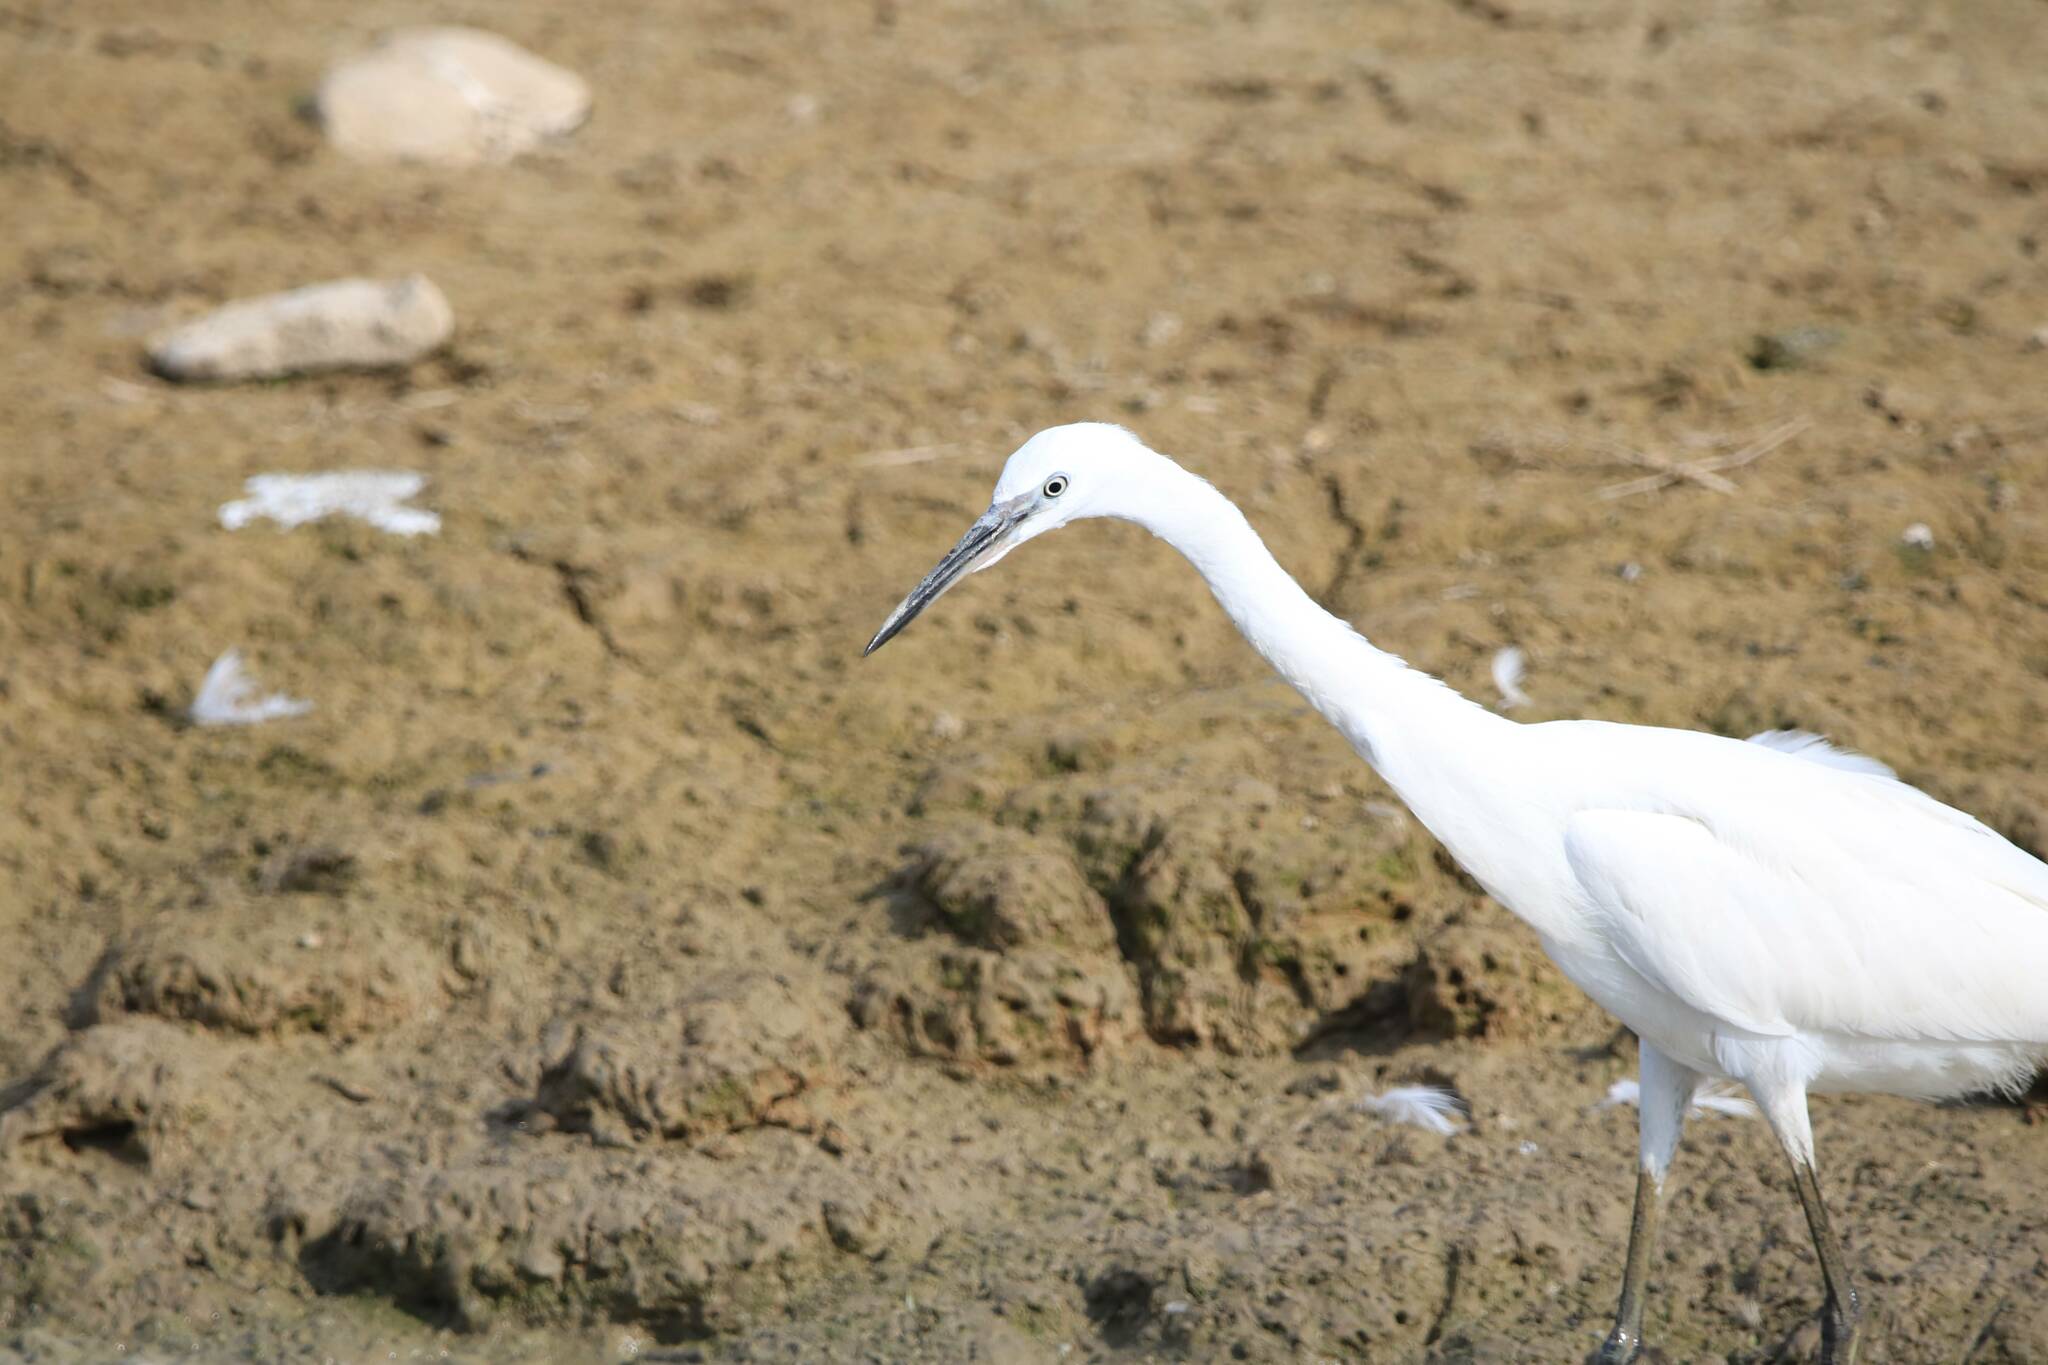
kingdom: Animalia
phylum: Chordata
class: Aves
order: Pelecaniformes
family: Ardeidae
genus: Egretta
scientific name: Egretta garzetta
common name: Little egret
